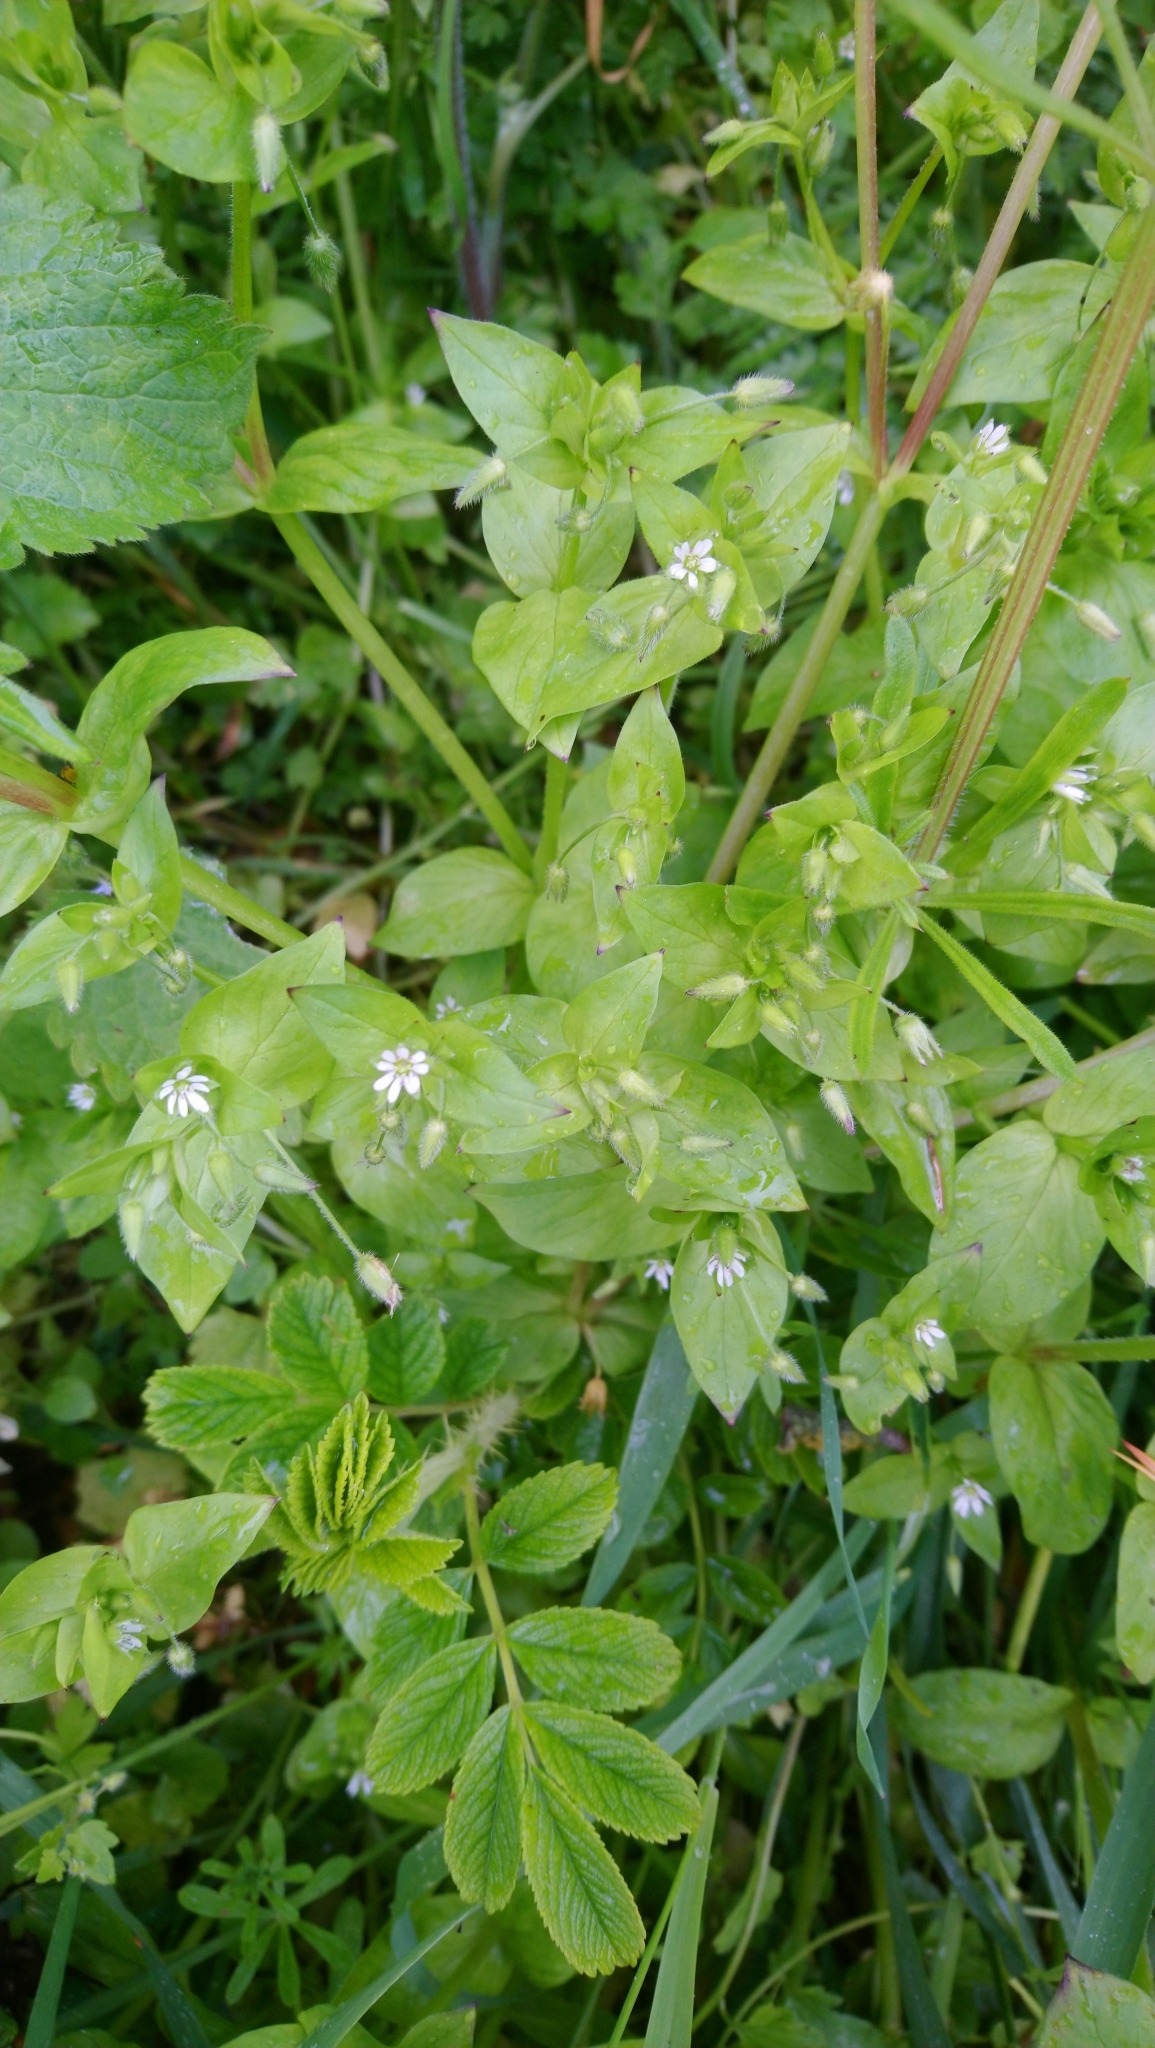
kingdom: Plantae
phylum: Tracheophyta
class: Magnoliopsida
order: Caryophyllales
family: Caryophyllaceae
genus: Stellaria
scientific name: Stellaria media
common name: Common chickweed
